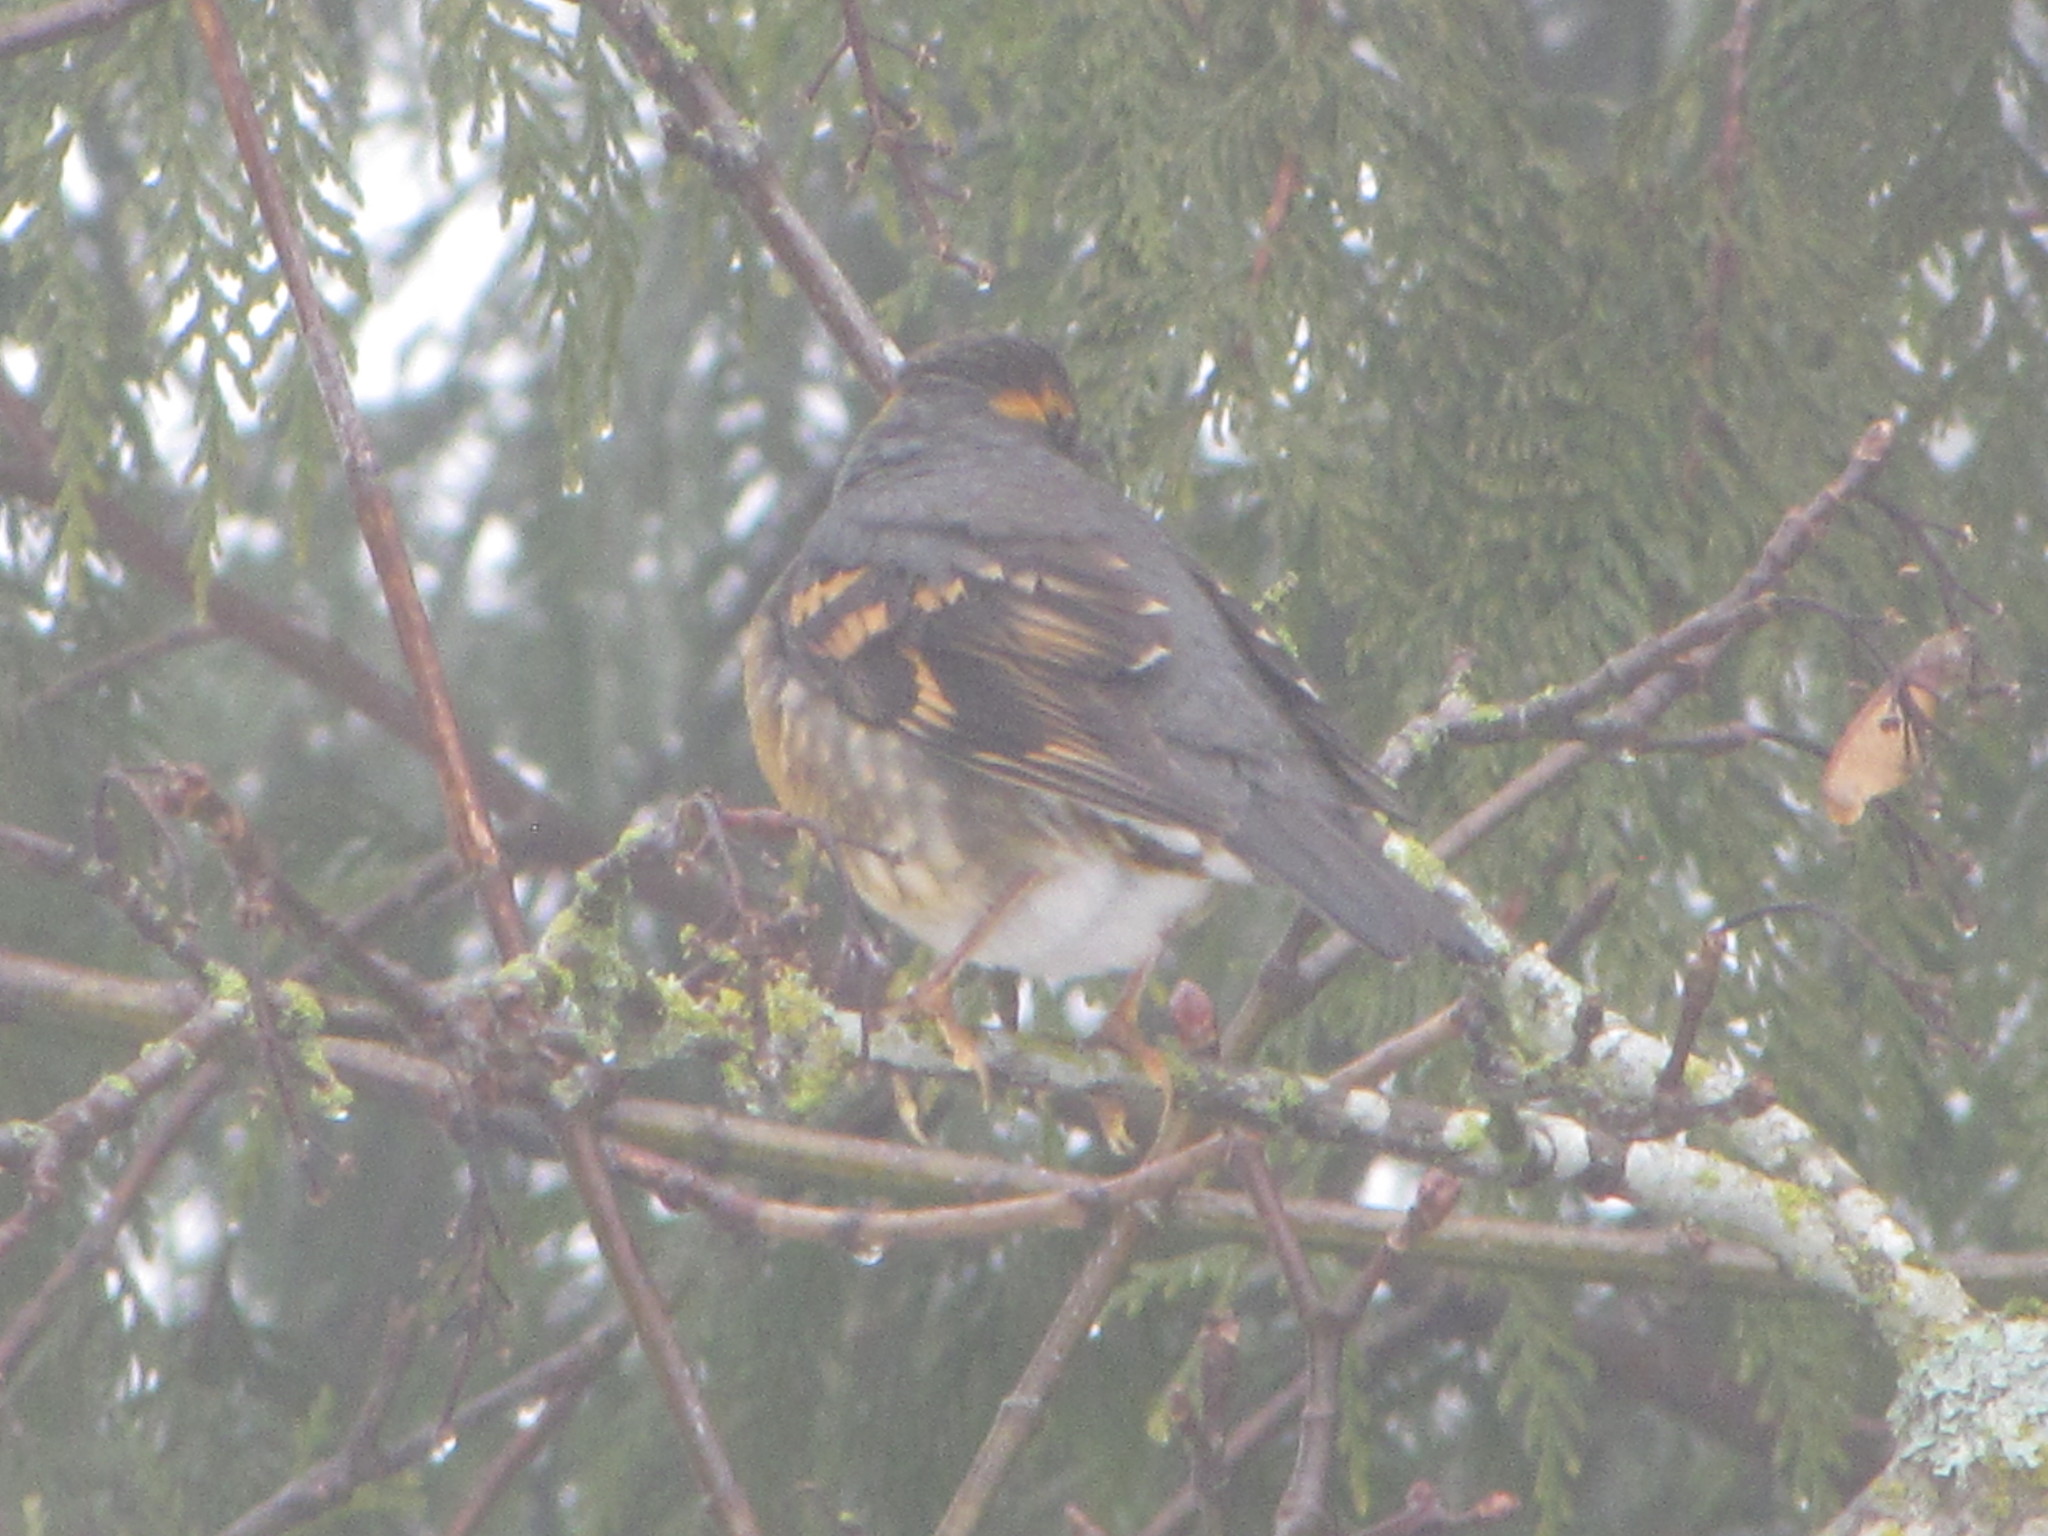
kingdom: Animalia
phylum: Chordata
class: Aves
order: Passeriformes
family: Turdidae
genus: Ixoreus
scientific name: Ixoreus naevius
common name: Varied thrush
